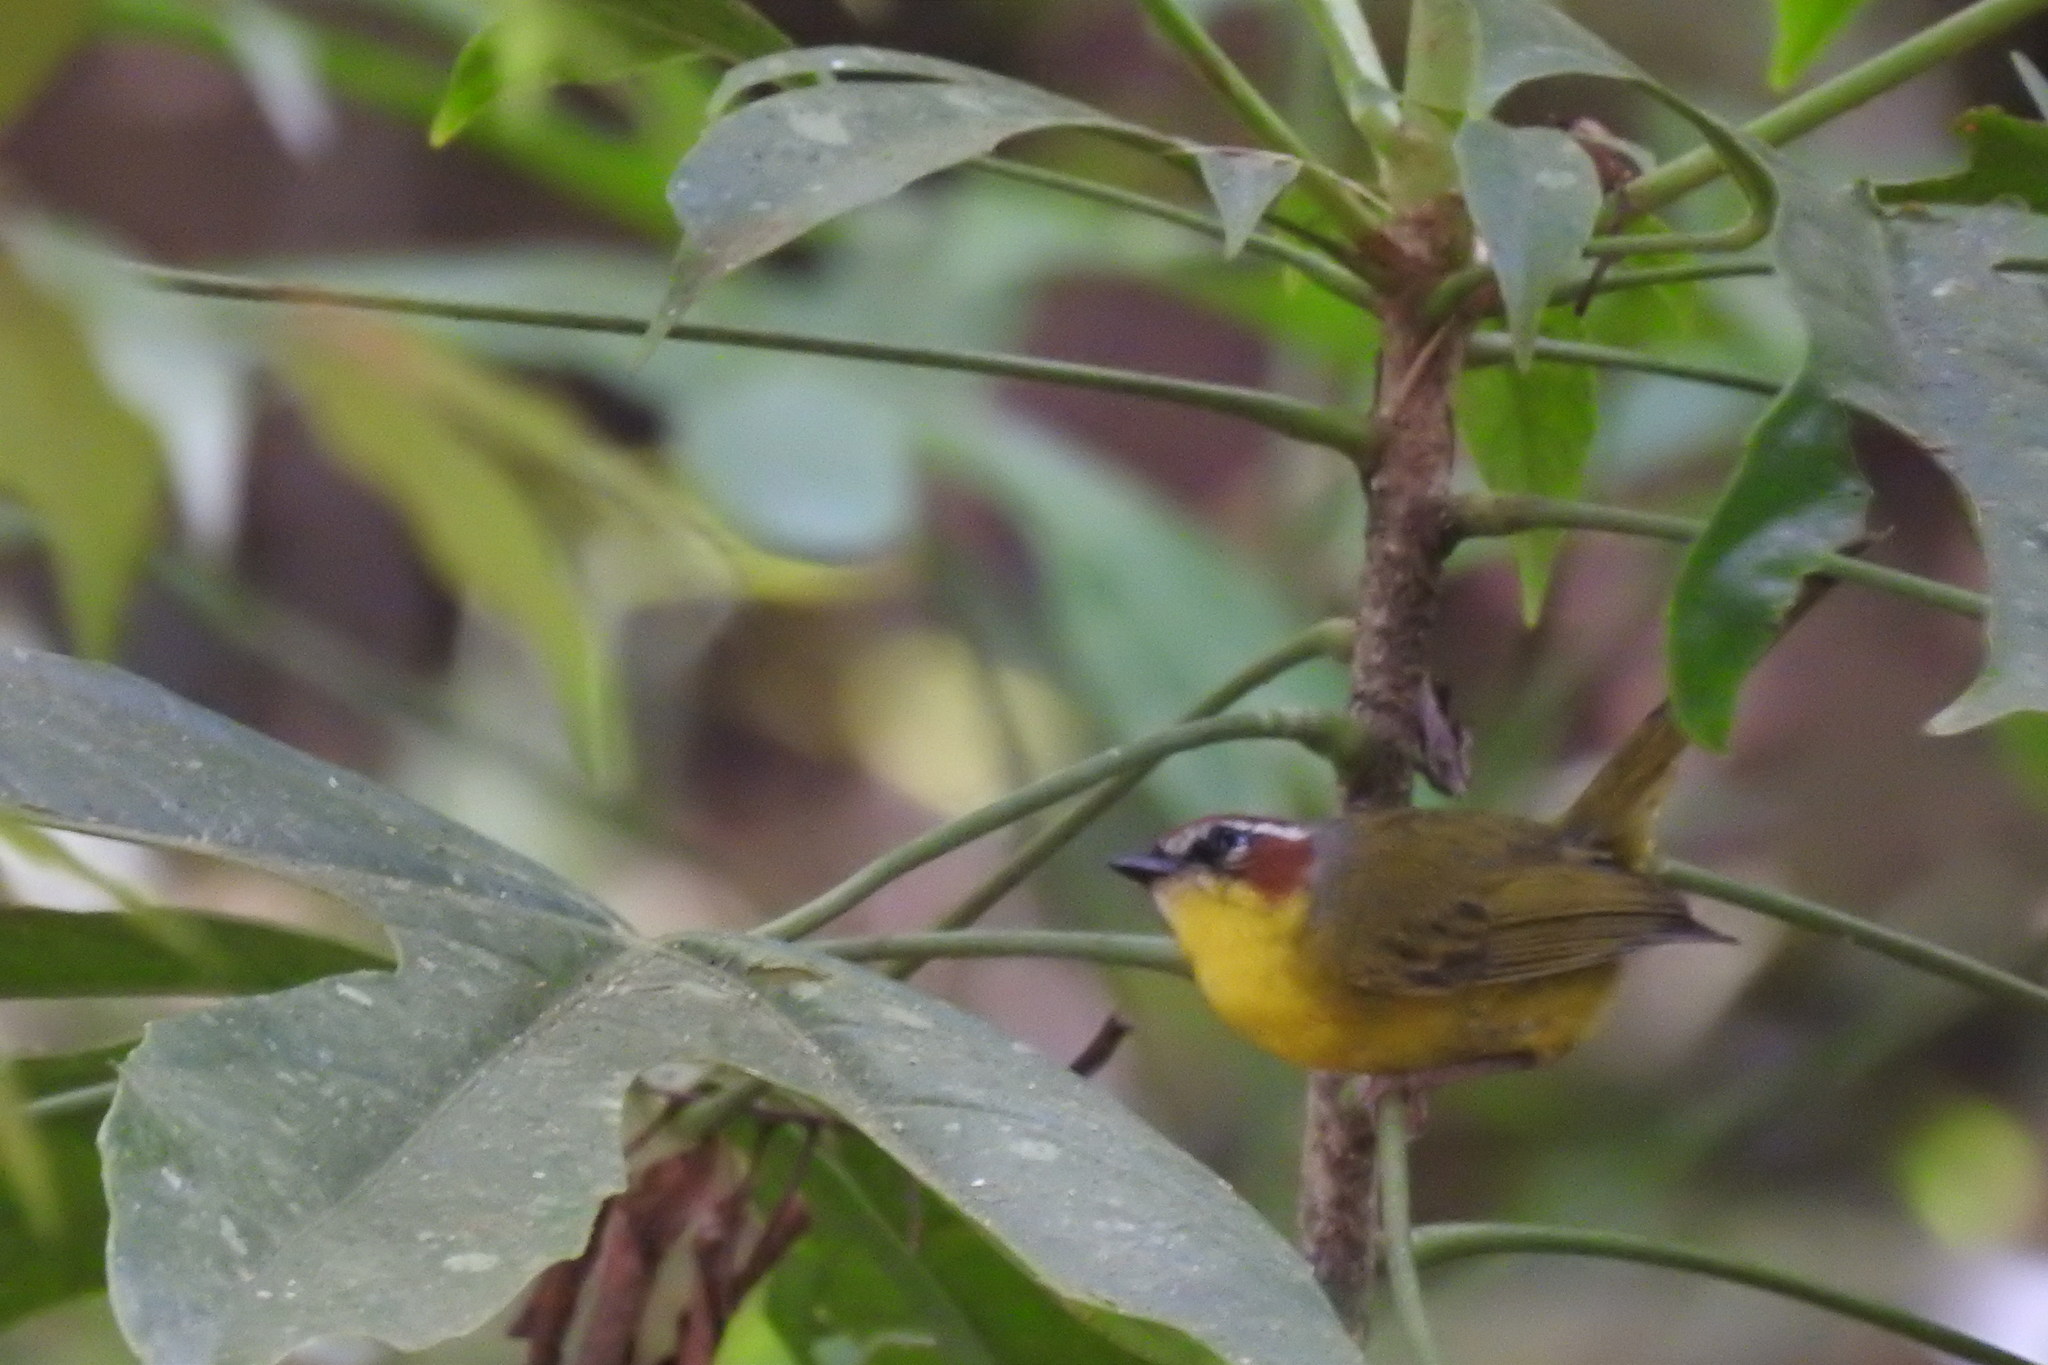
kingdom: Animalia
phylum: Chordata
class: Aves
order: Passeriformes
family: Parulidae
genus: Basileuterus
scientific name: Basileuterus rufifrons
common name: Rufous-capped warbler
